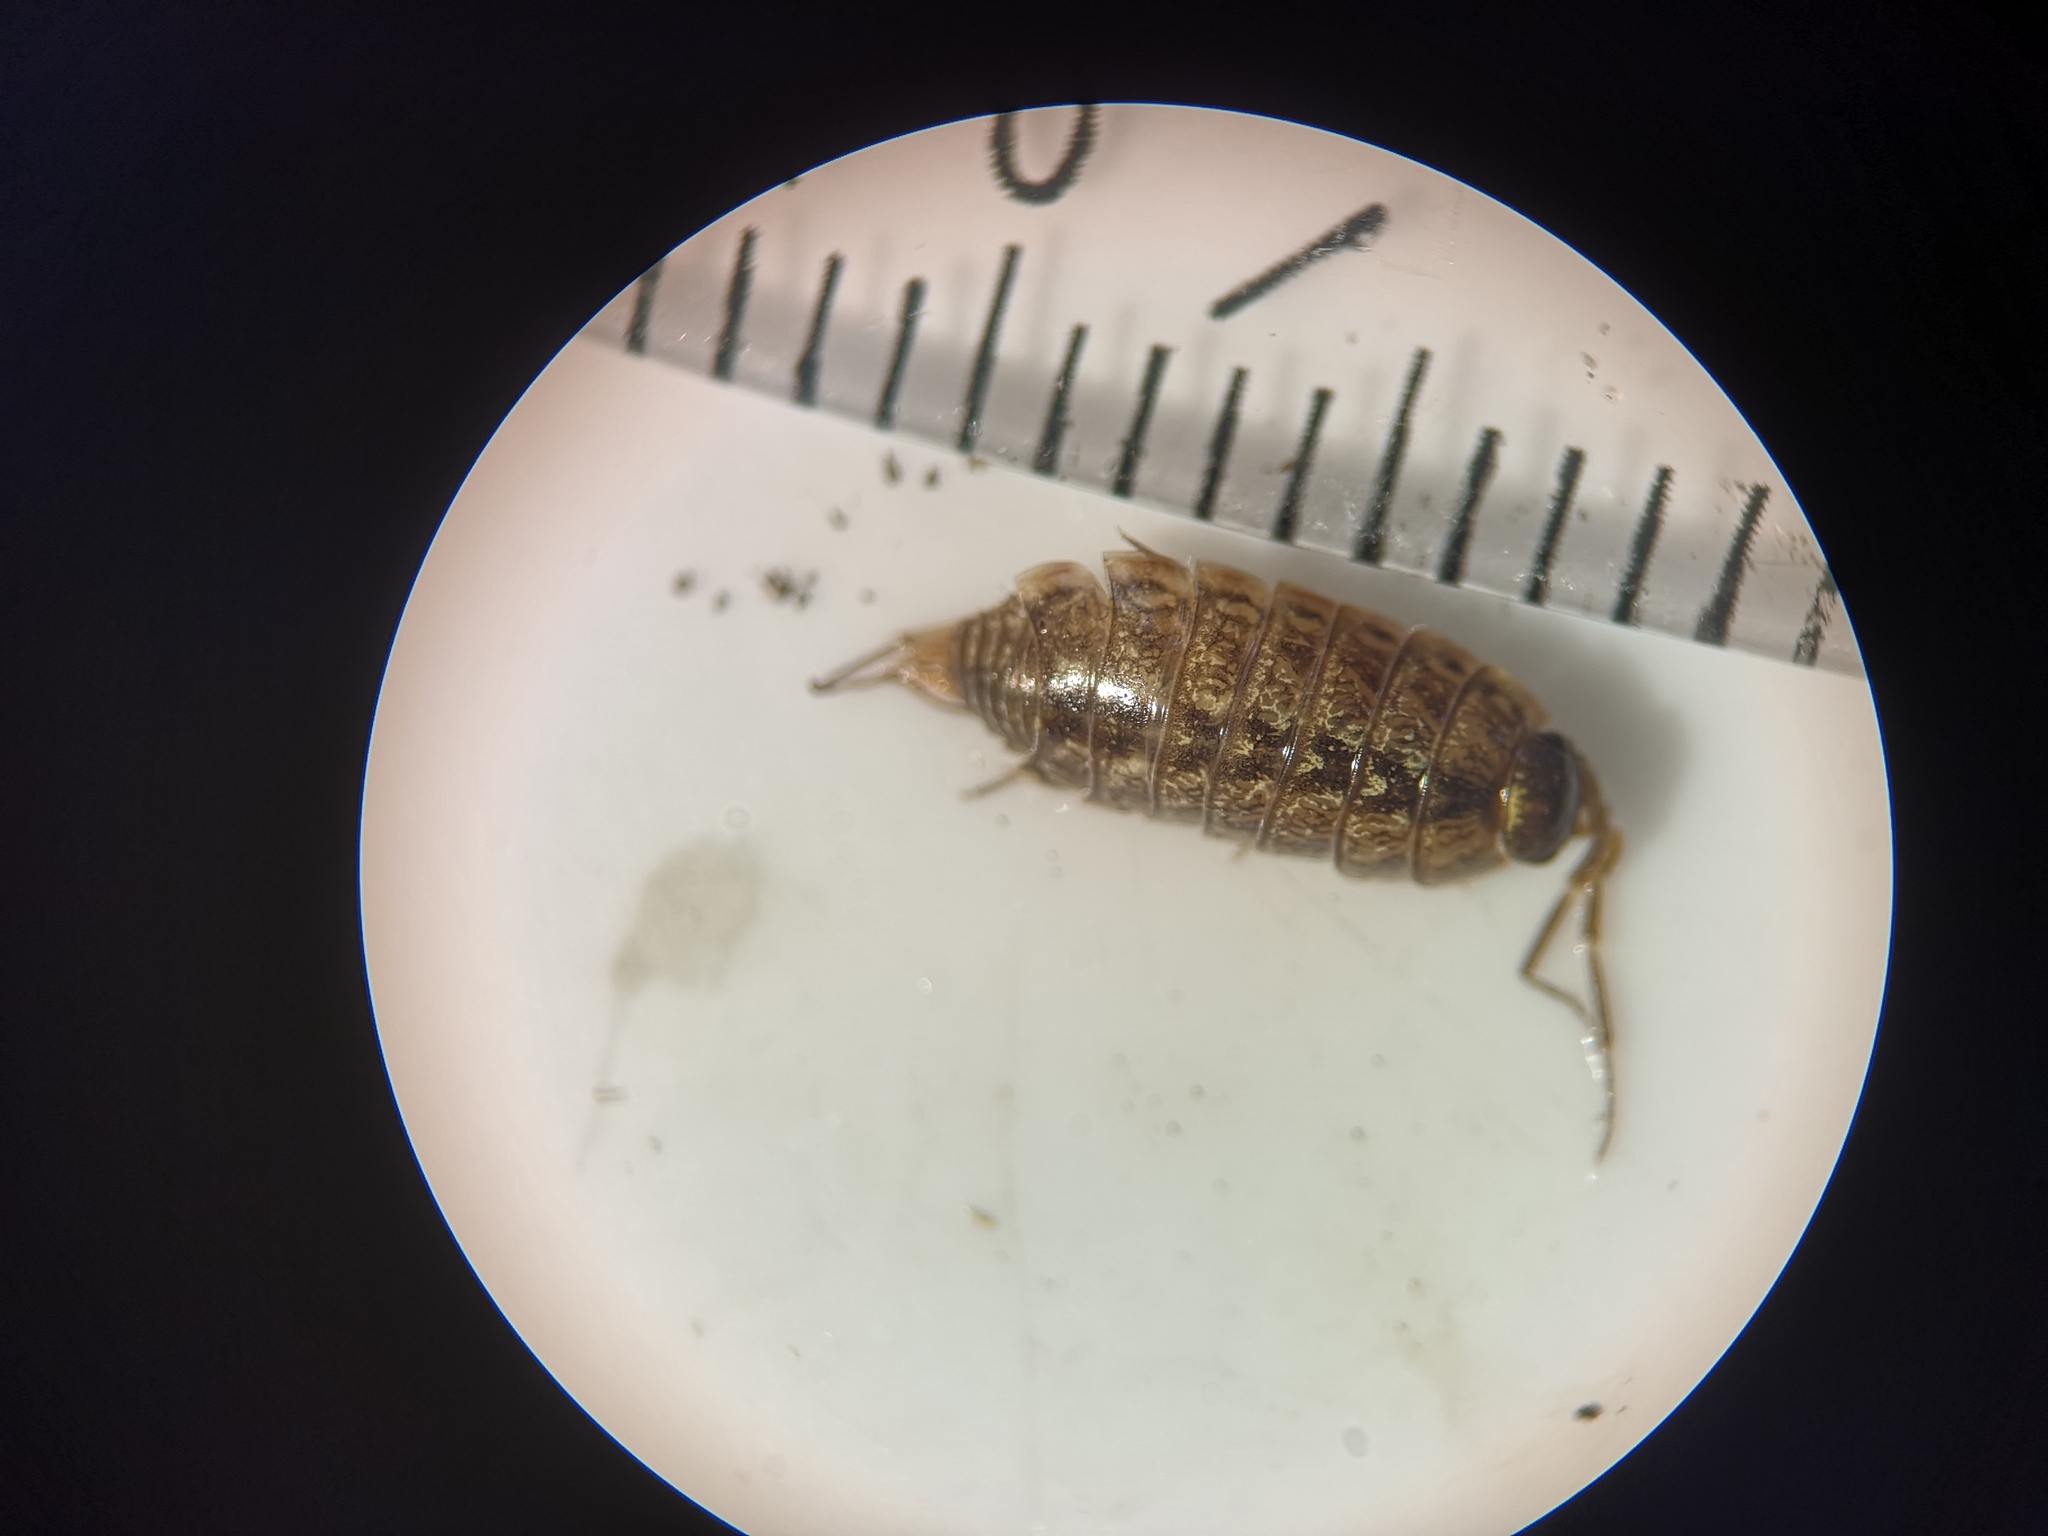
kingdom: Animalia
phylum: Arthropoda
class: Malacostraca
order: Isopoda
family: Philosciidae
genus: Philoscia
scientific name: Philoscia muscorum
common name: Common striped woodlouse
